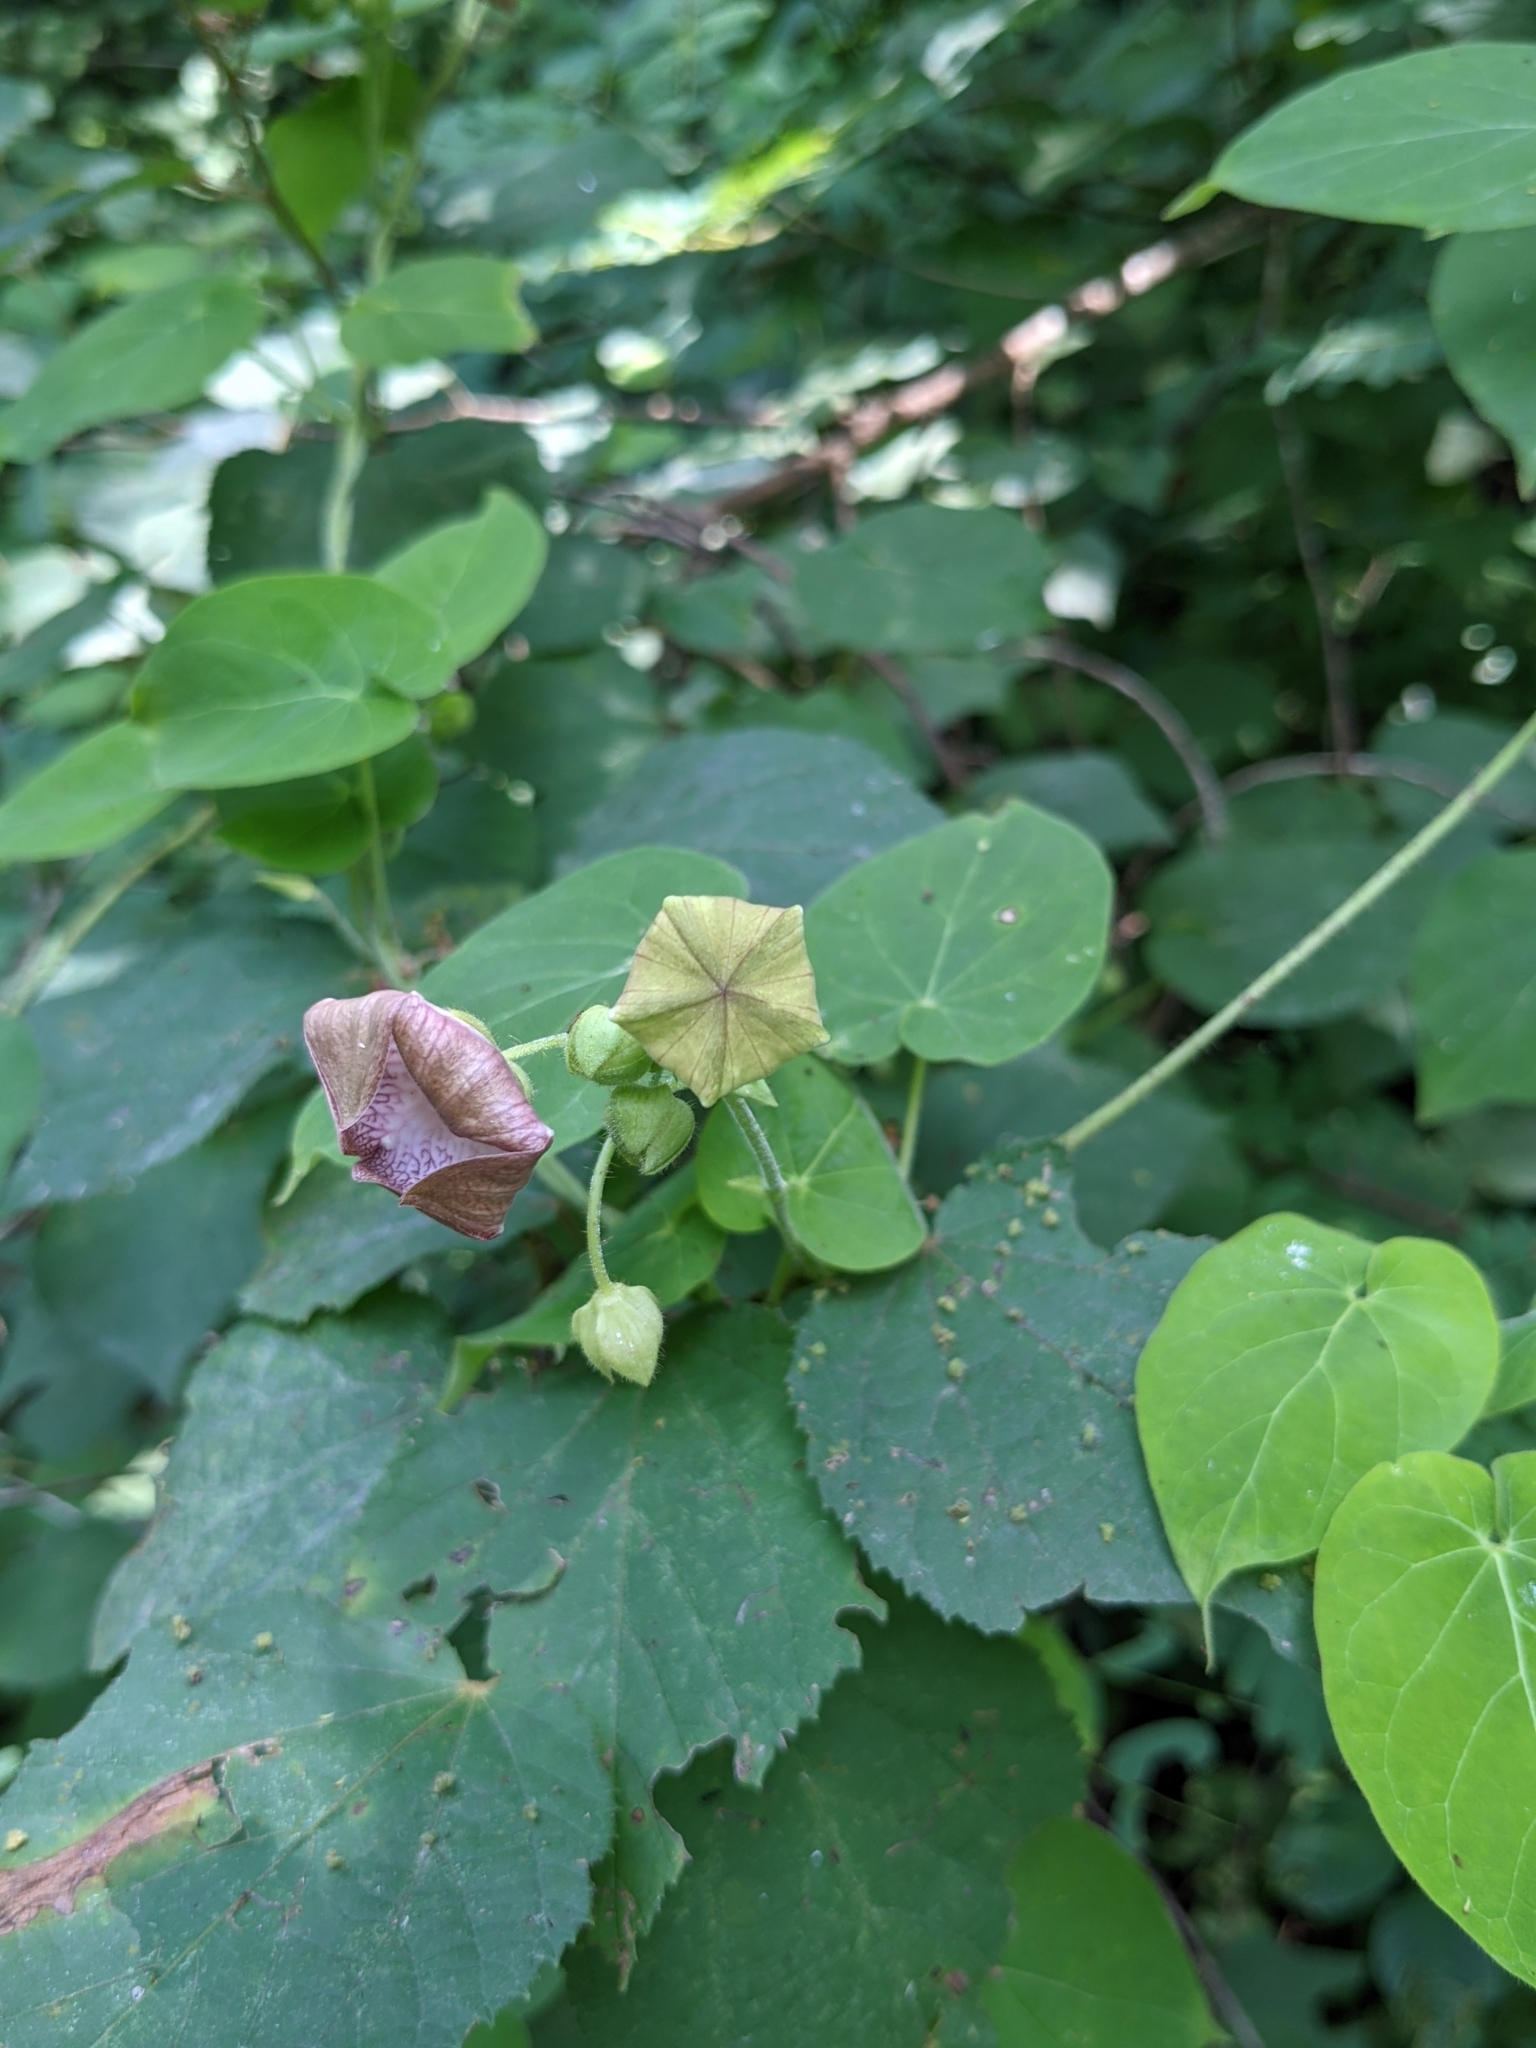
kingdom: Plantae
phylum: Tracheophyta
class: Magnoliopsida
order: Gentianales
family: Apocynaceae
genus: Polystemma
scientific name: Polystemma guatemalense
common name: Arborescente rattan
